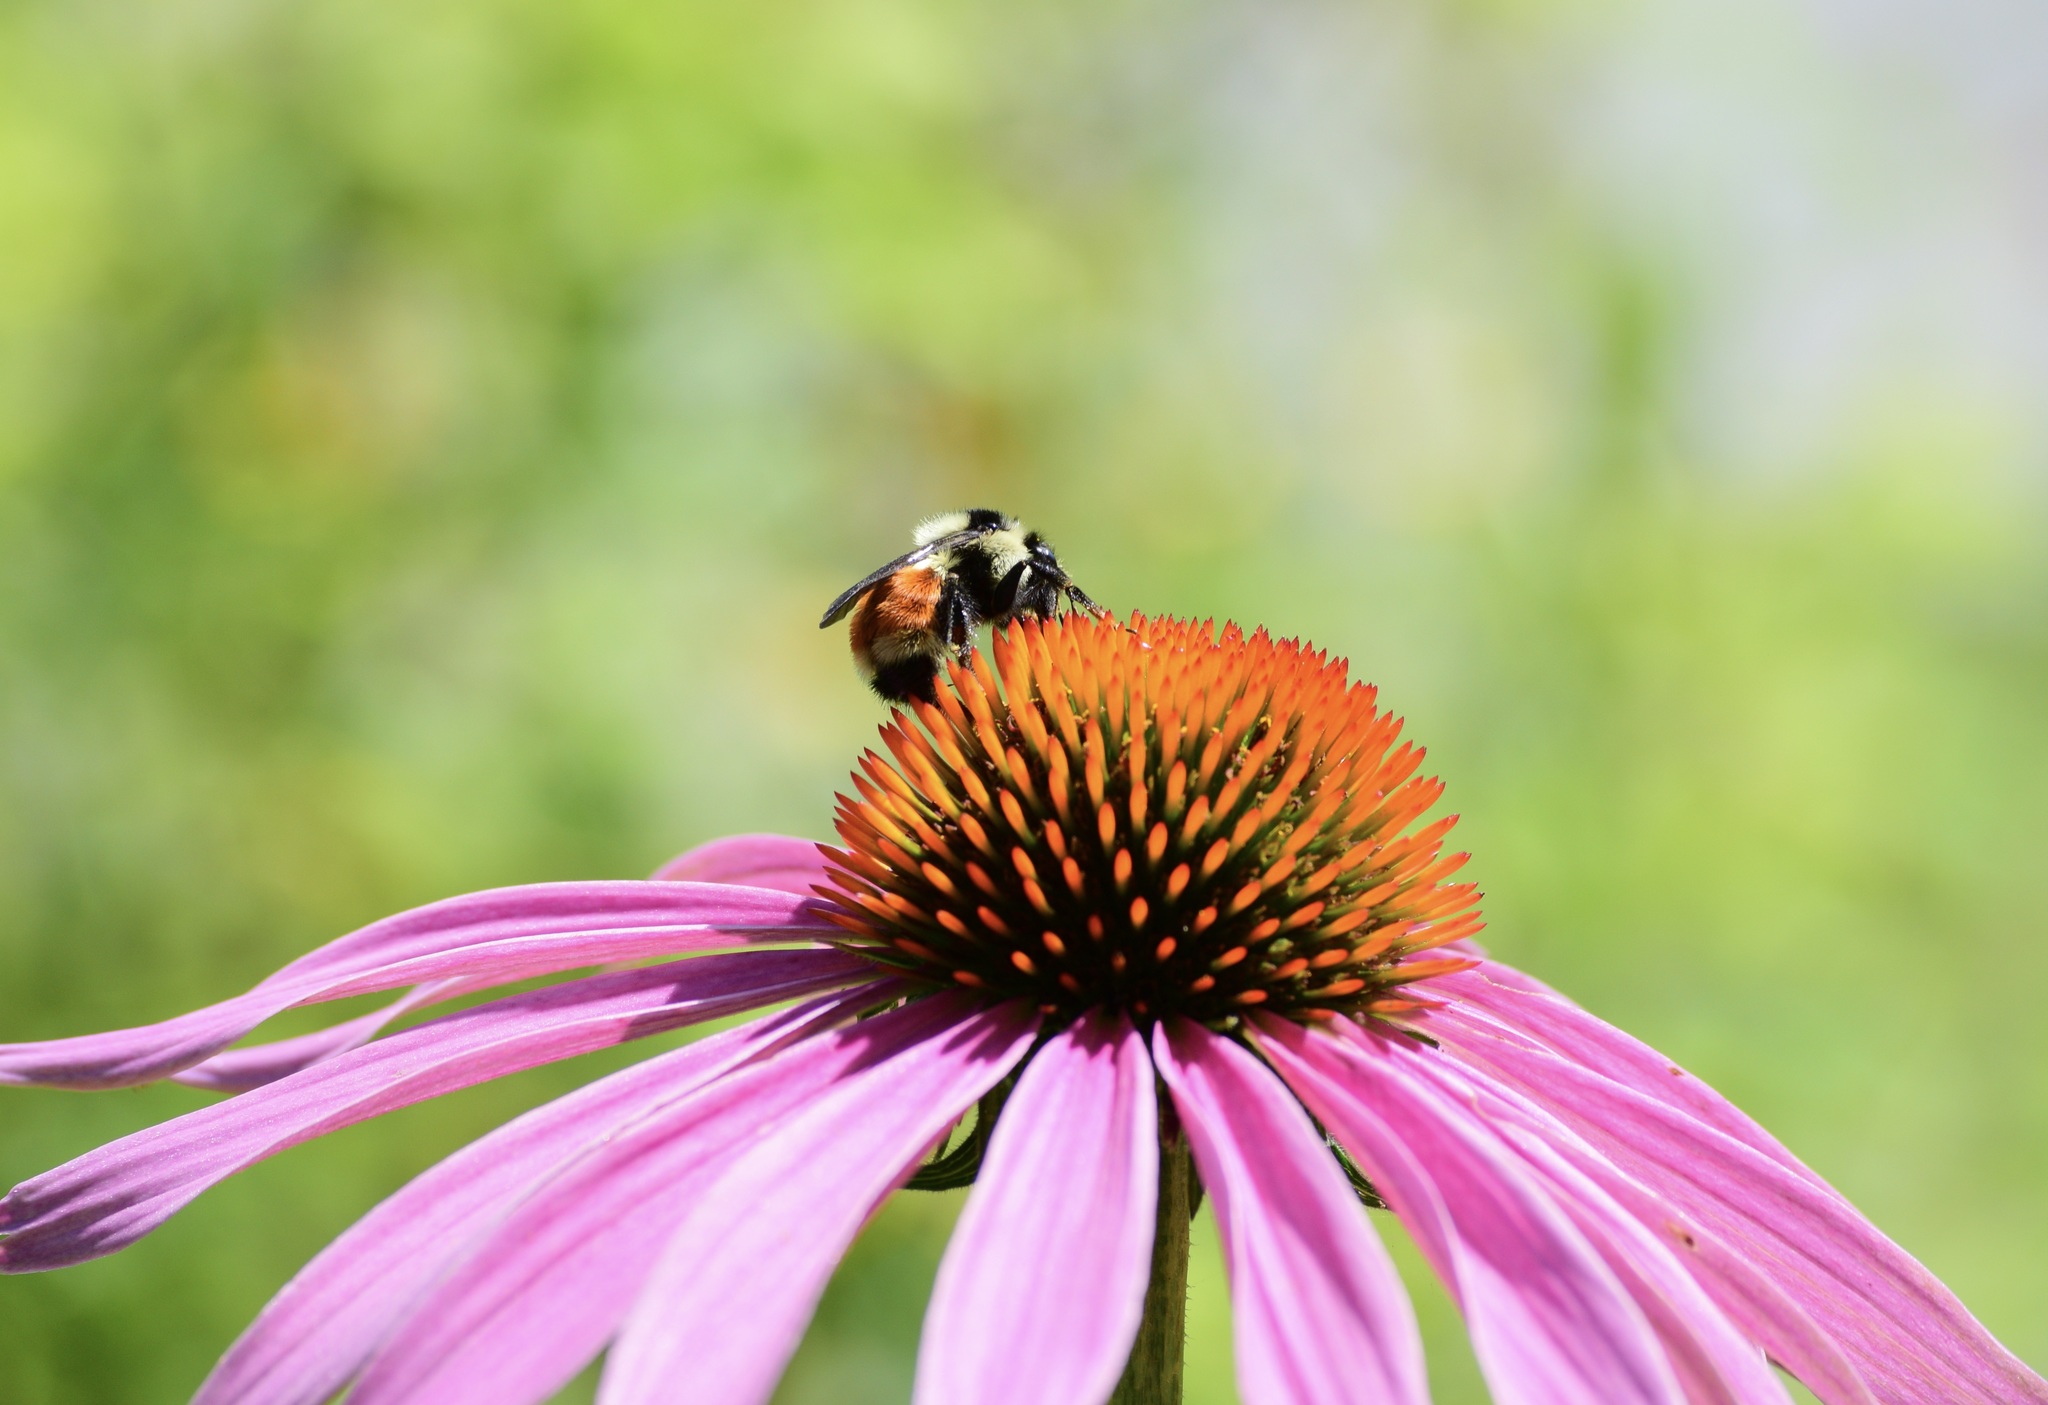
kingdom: Animalia
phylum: Arthropoda
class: Insecta
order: Hymenoptera
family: Apidae
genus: Bombus
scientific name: Bombus ternarius
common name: Tri-colored bumble bee
